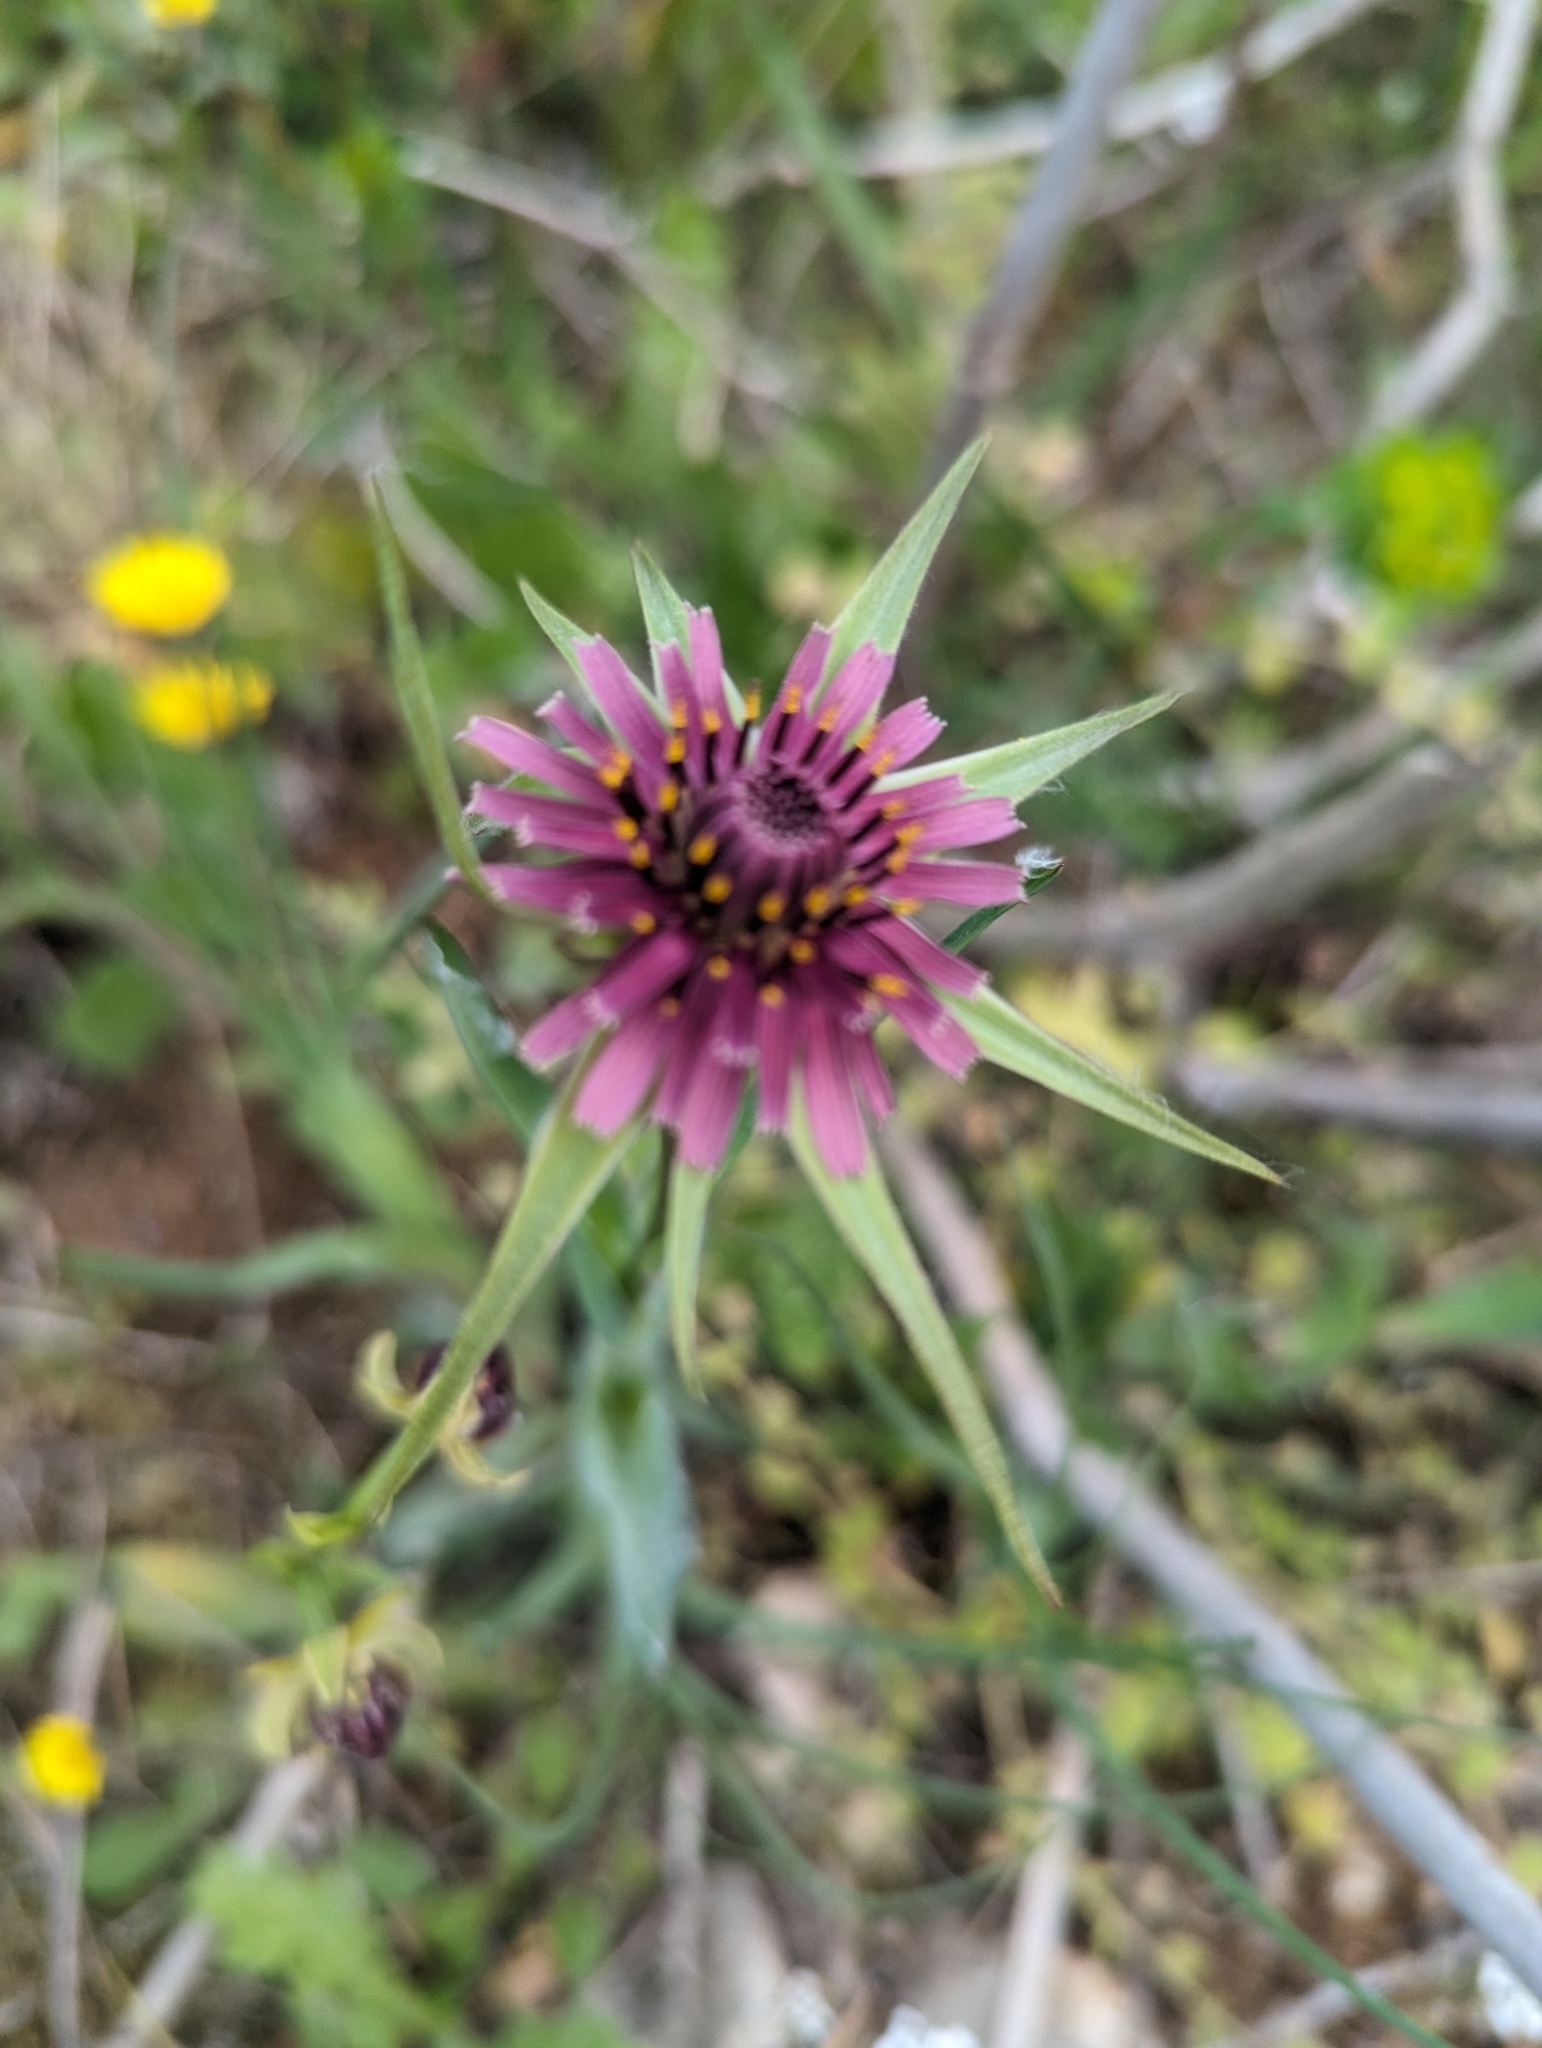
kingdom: Plantae
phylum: Tracheophyta
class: Magnoliopsida
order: Asterales
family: Asteraceae
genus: Tragopogon
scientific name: Tragopogon porrifolius
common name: Salsify
